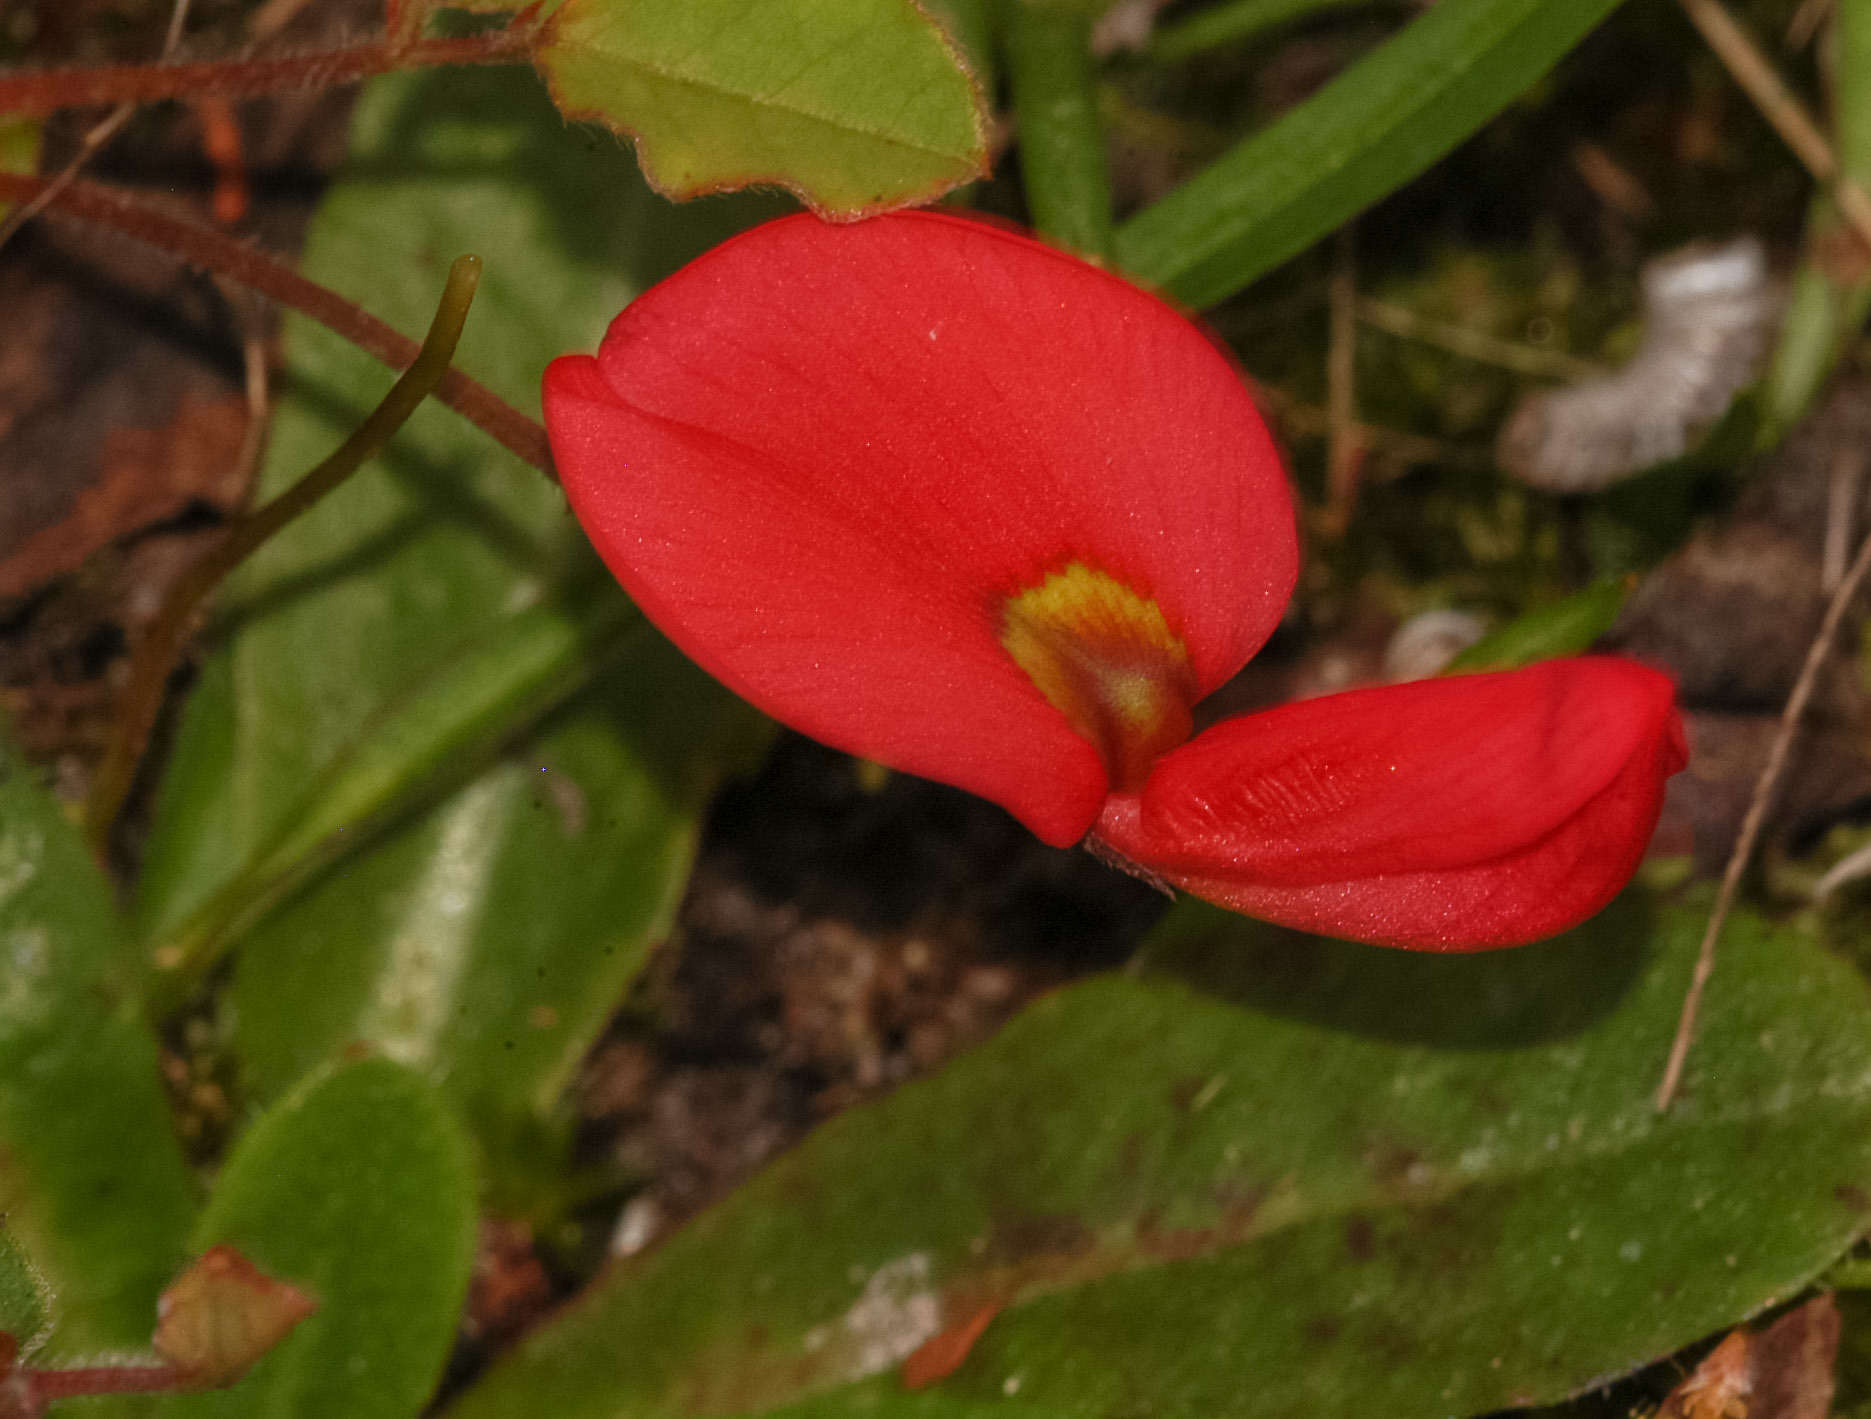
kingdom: Plantae
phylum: Tracheophyta
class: Magnoliopsida
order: Fabales
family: Fabaceae
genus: Kennedia
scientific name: Kennedia prostrata
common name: Running-postman
